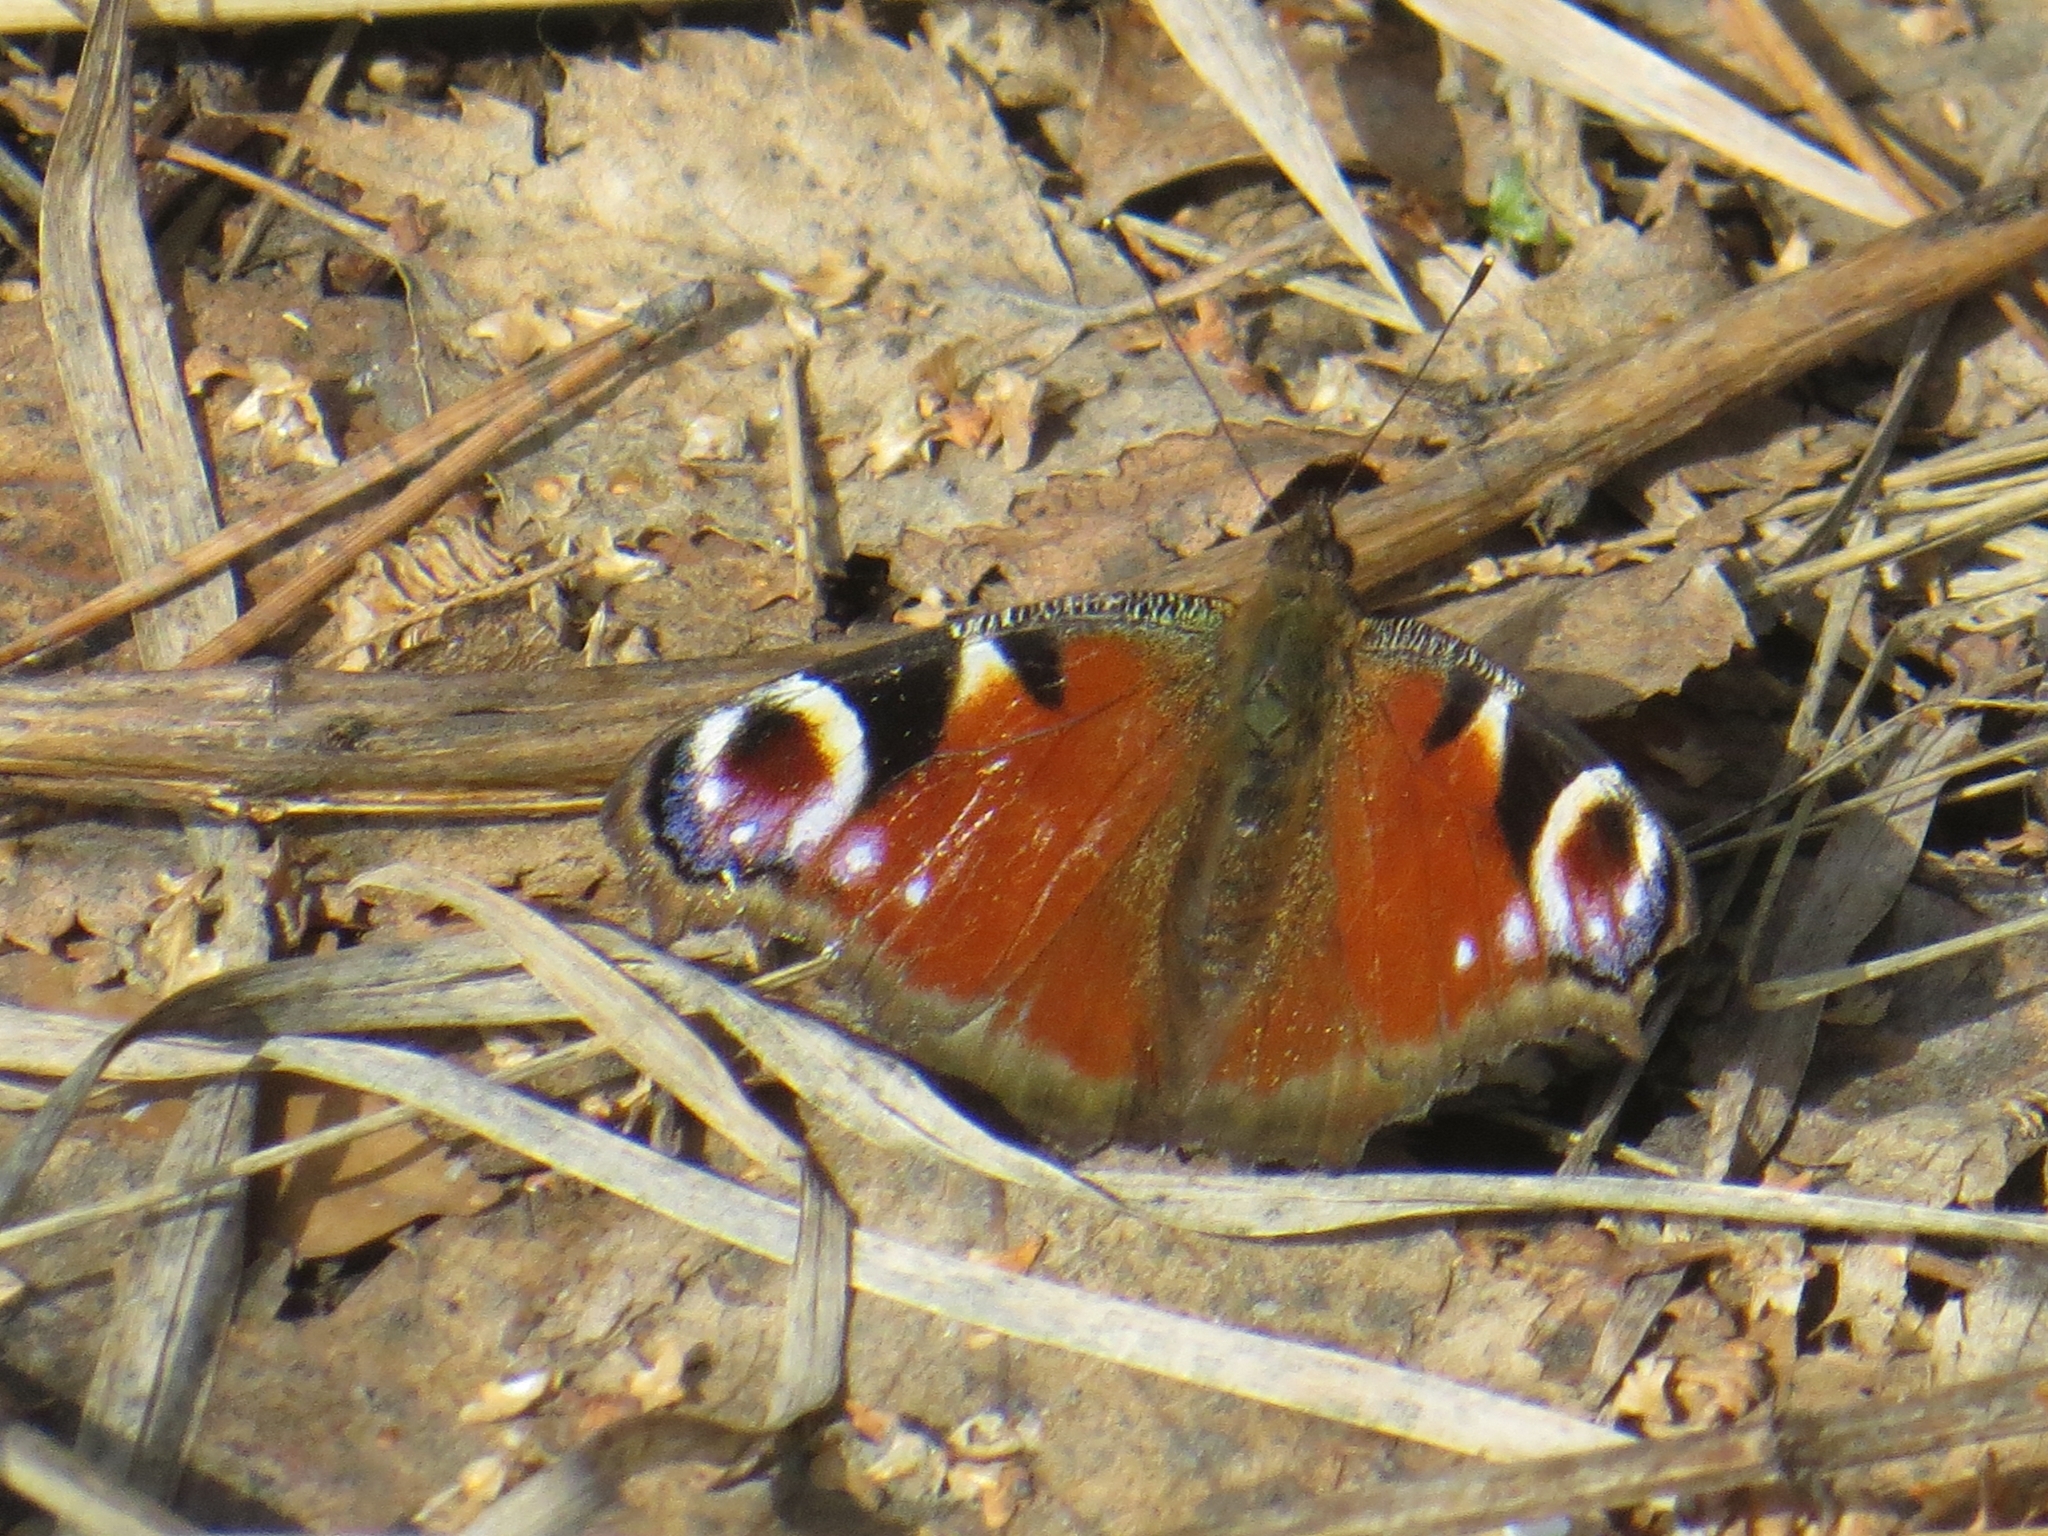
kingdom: Animalia
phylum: Arthropoda
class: Insecta
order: Lepidoptera
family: Nymphalidae
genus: Aglais
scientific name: Aglais io
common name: Peacock
